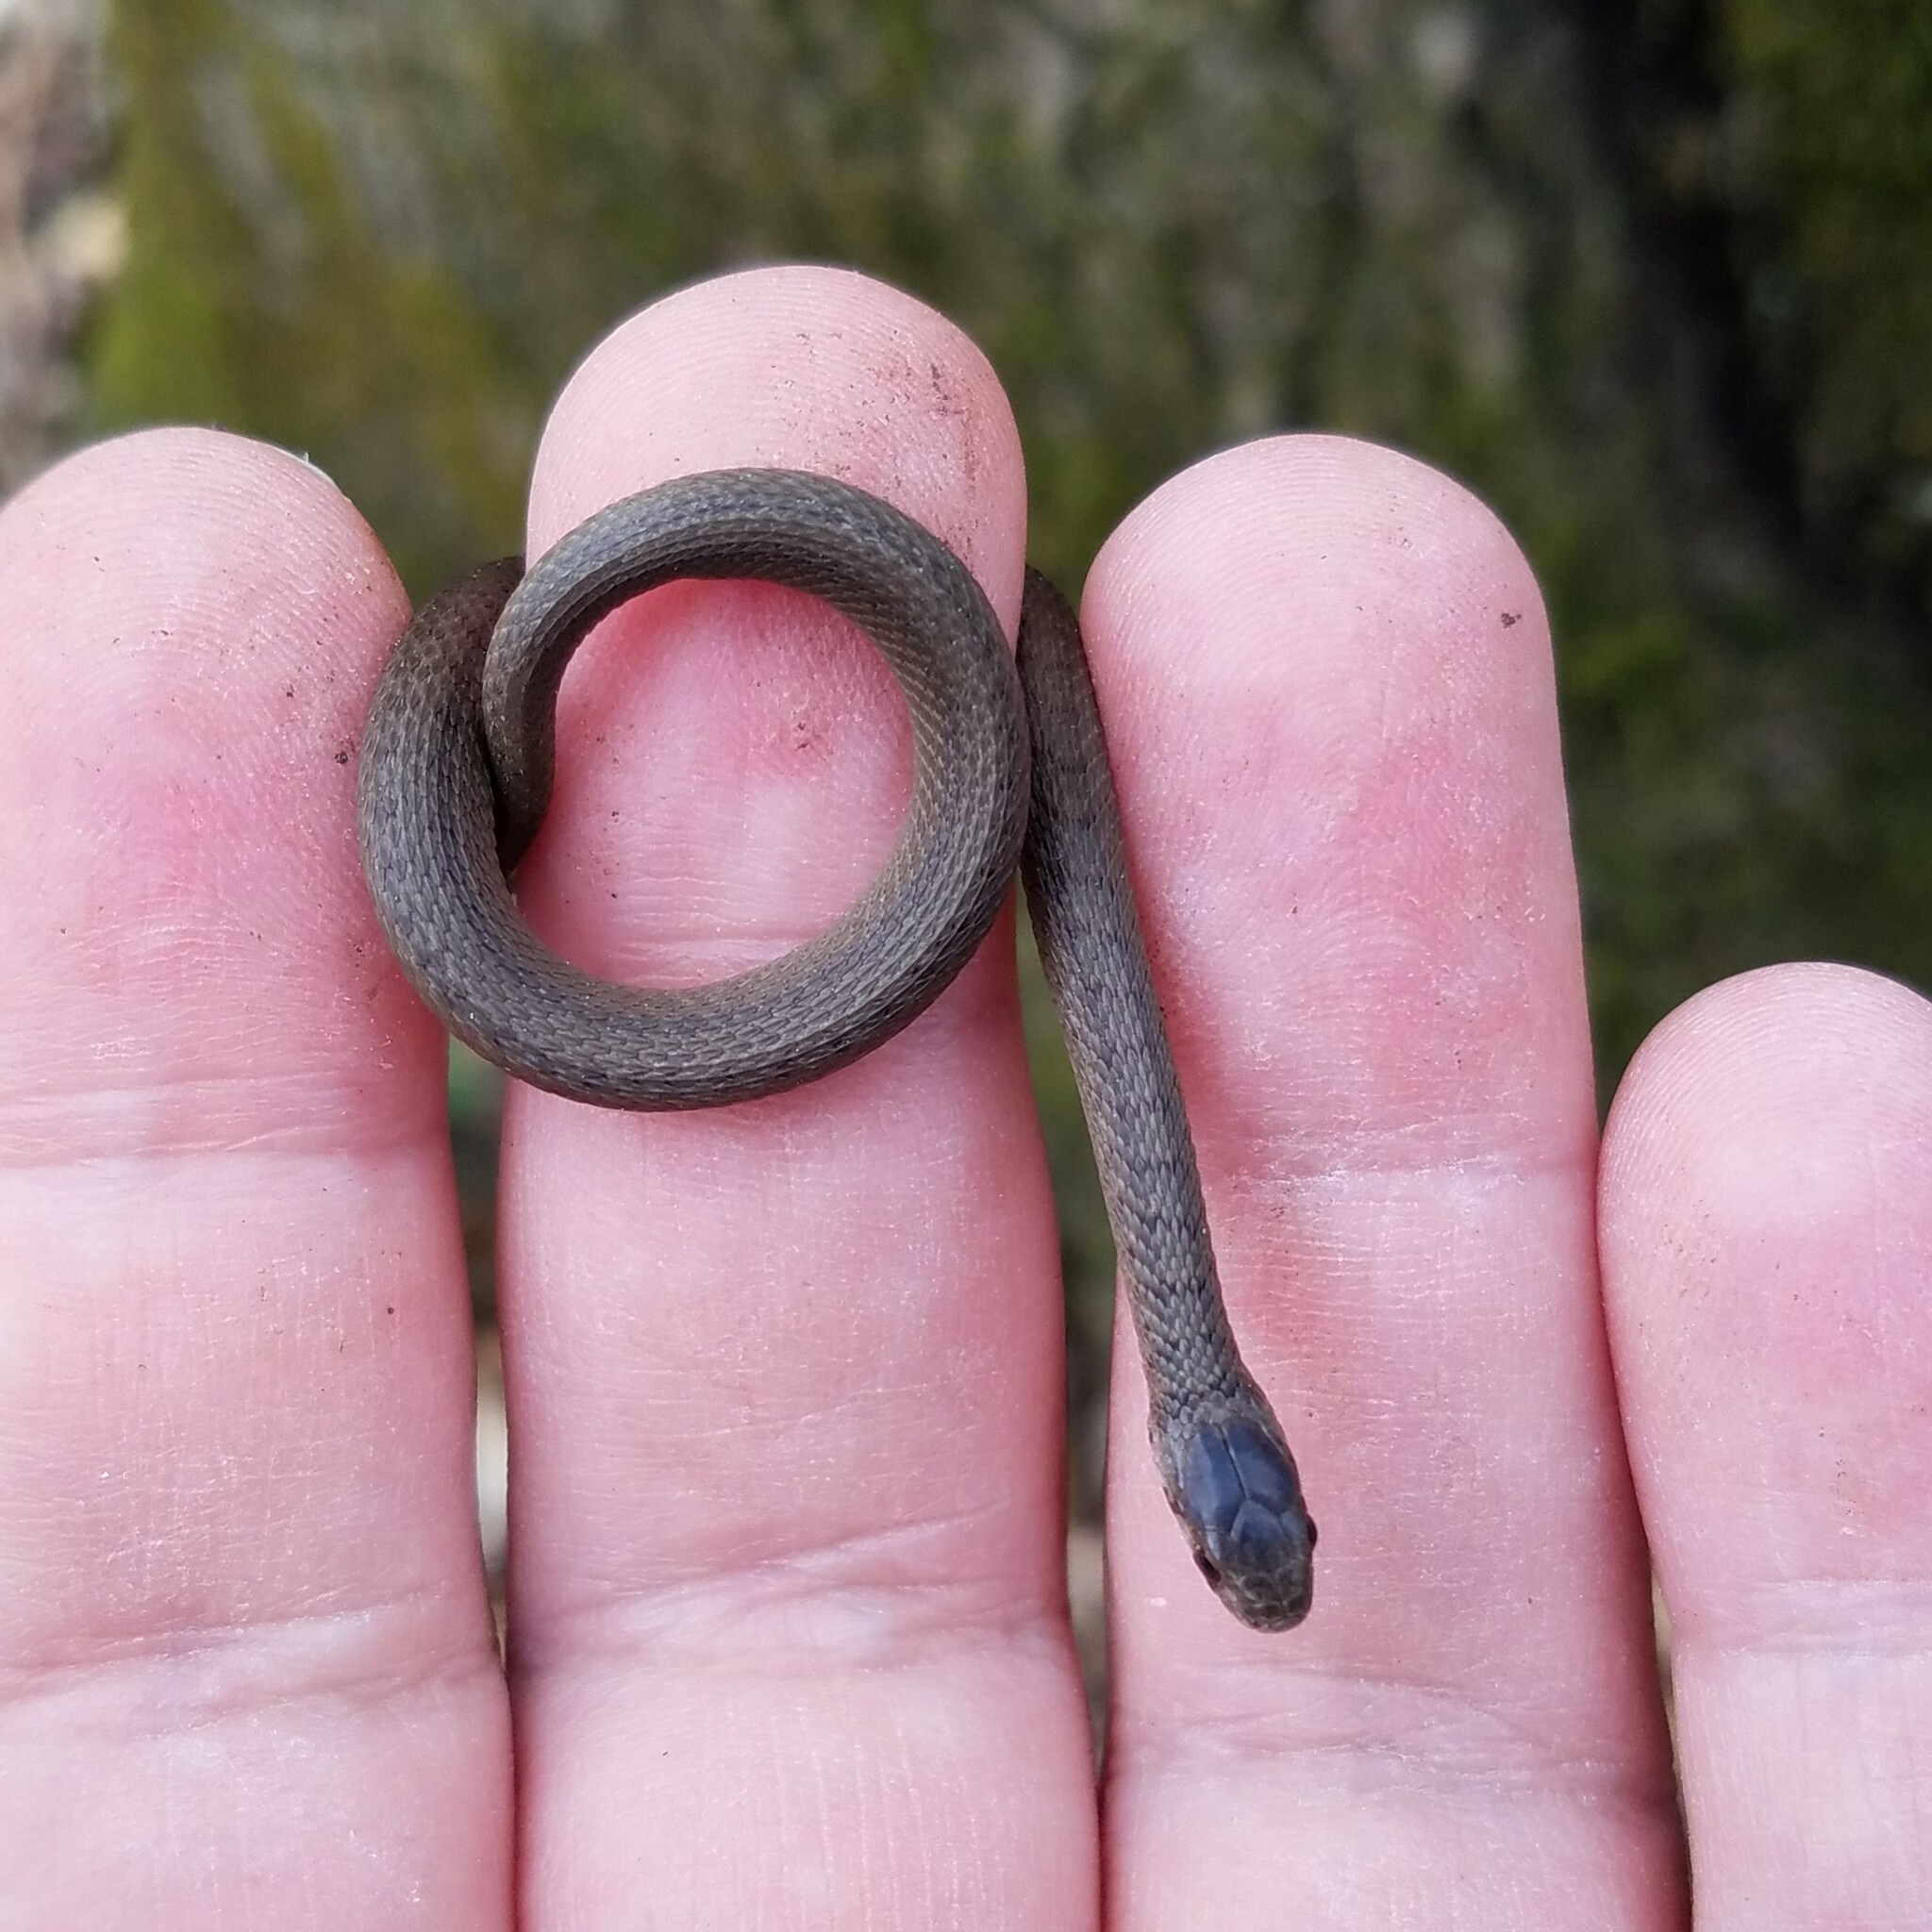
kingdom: Animalia
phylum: Chordata
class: Squamata
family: Colubridae
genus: Storeria
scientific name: Storeria dekayi
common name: (dekay’s) brown snake
